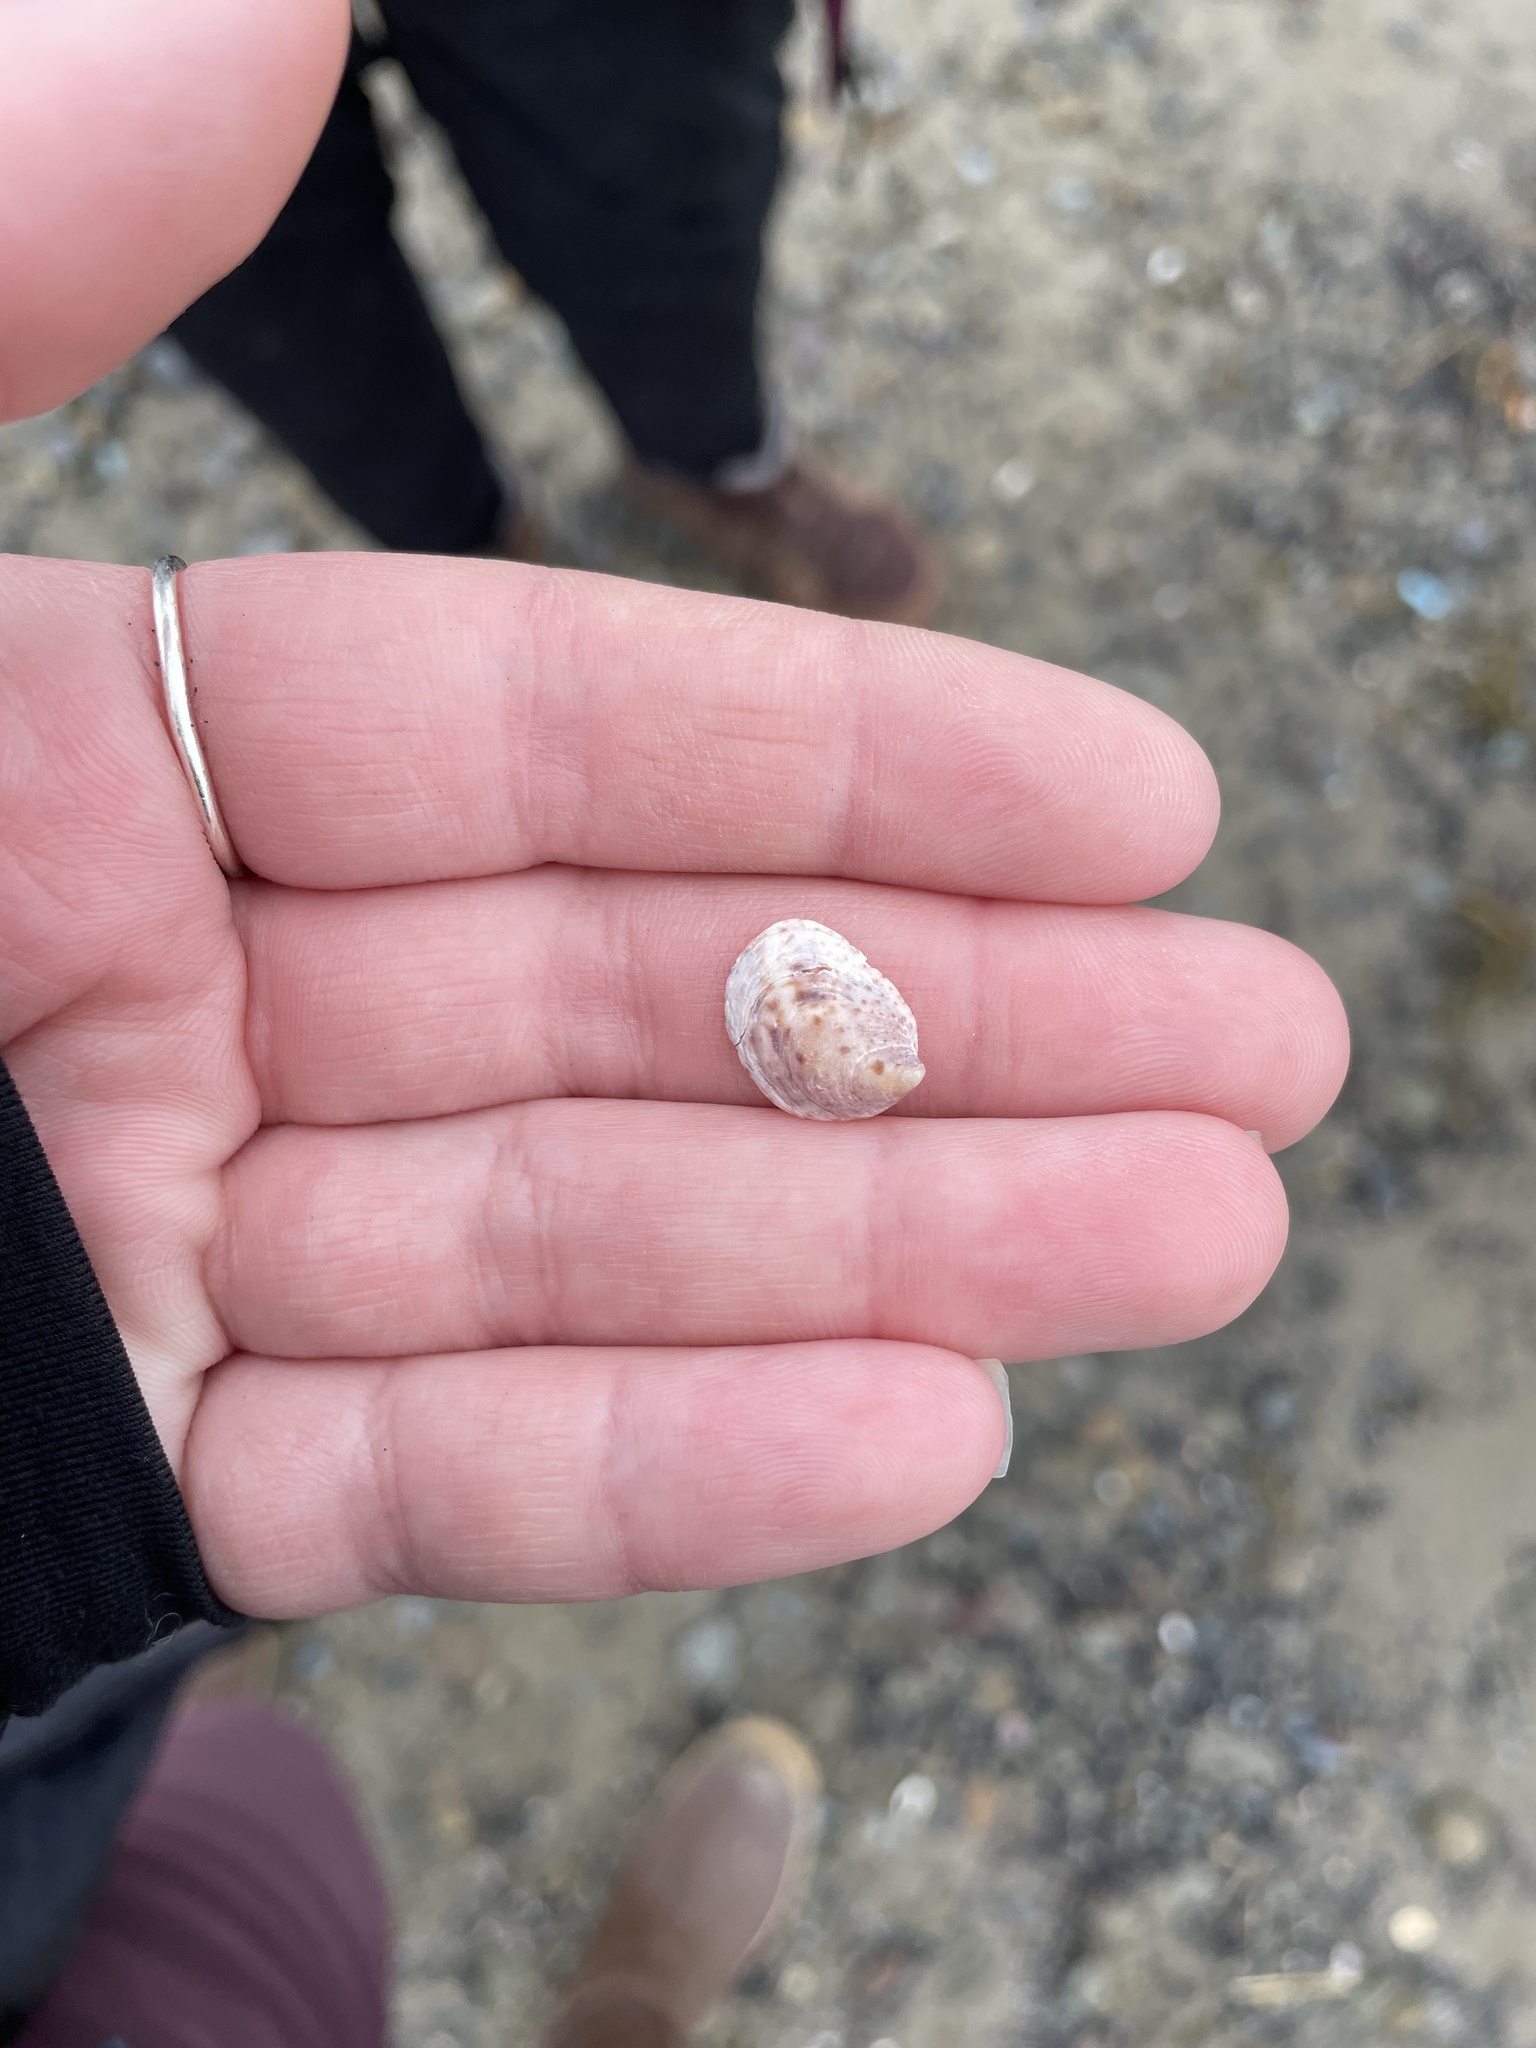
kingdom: Animalia
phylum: Mollusca
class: Gastropoda
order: Littorinimorpha
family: Calyptraeidae
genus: Crepidula
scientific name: Crepidula fornicata
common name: Slipper limpet
